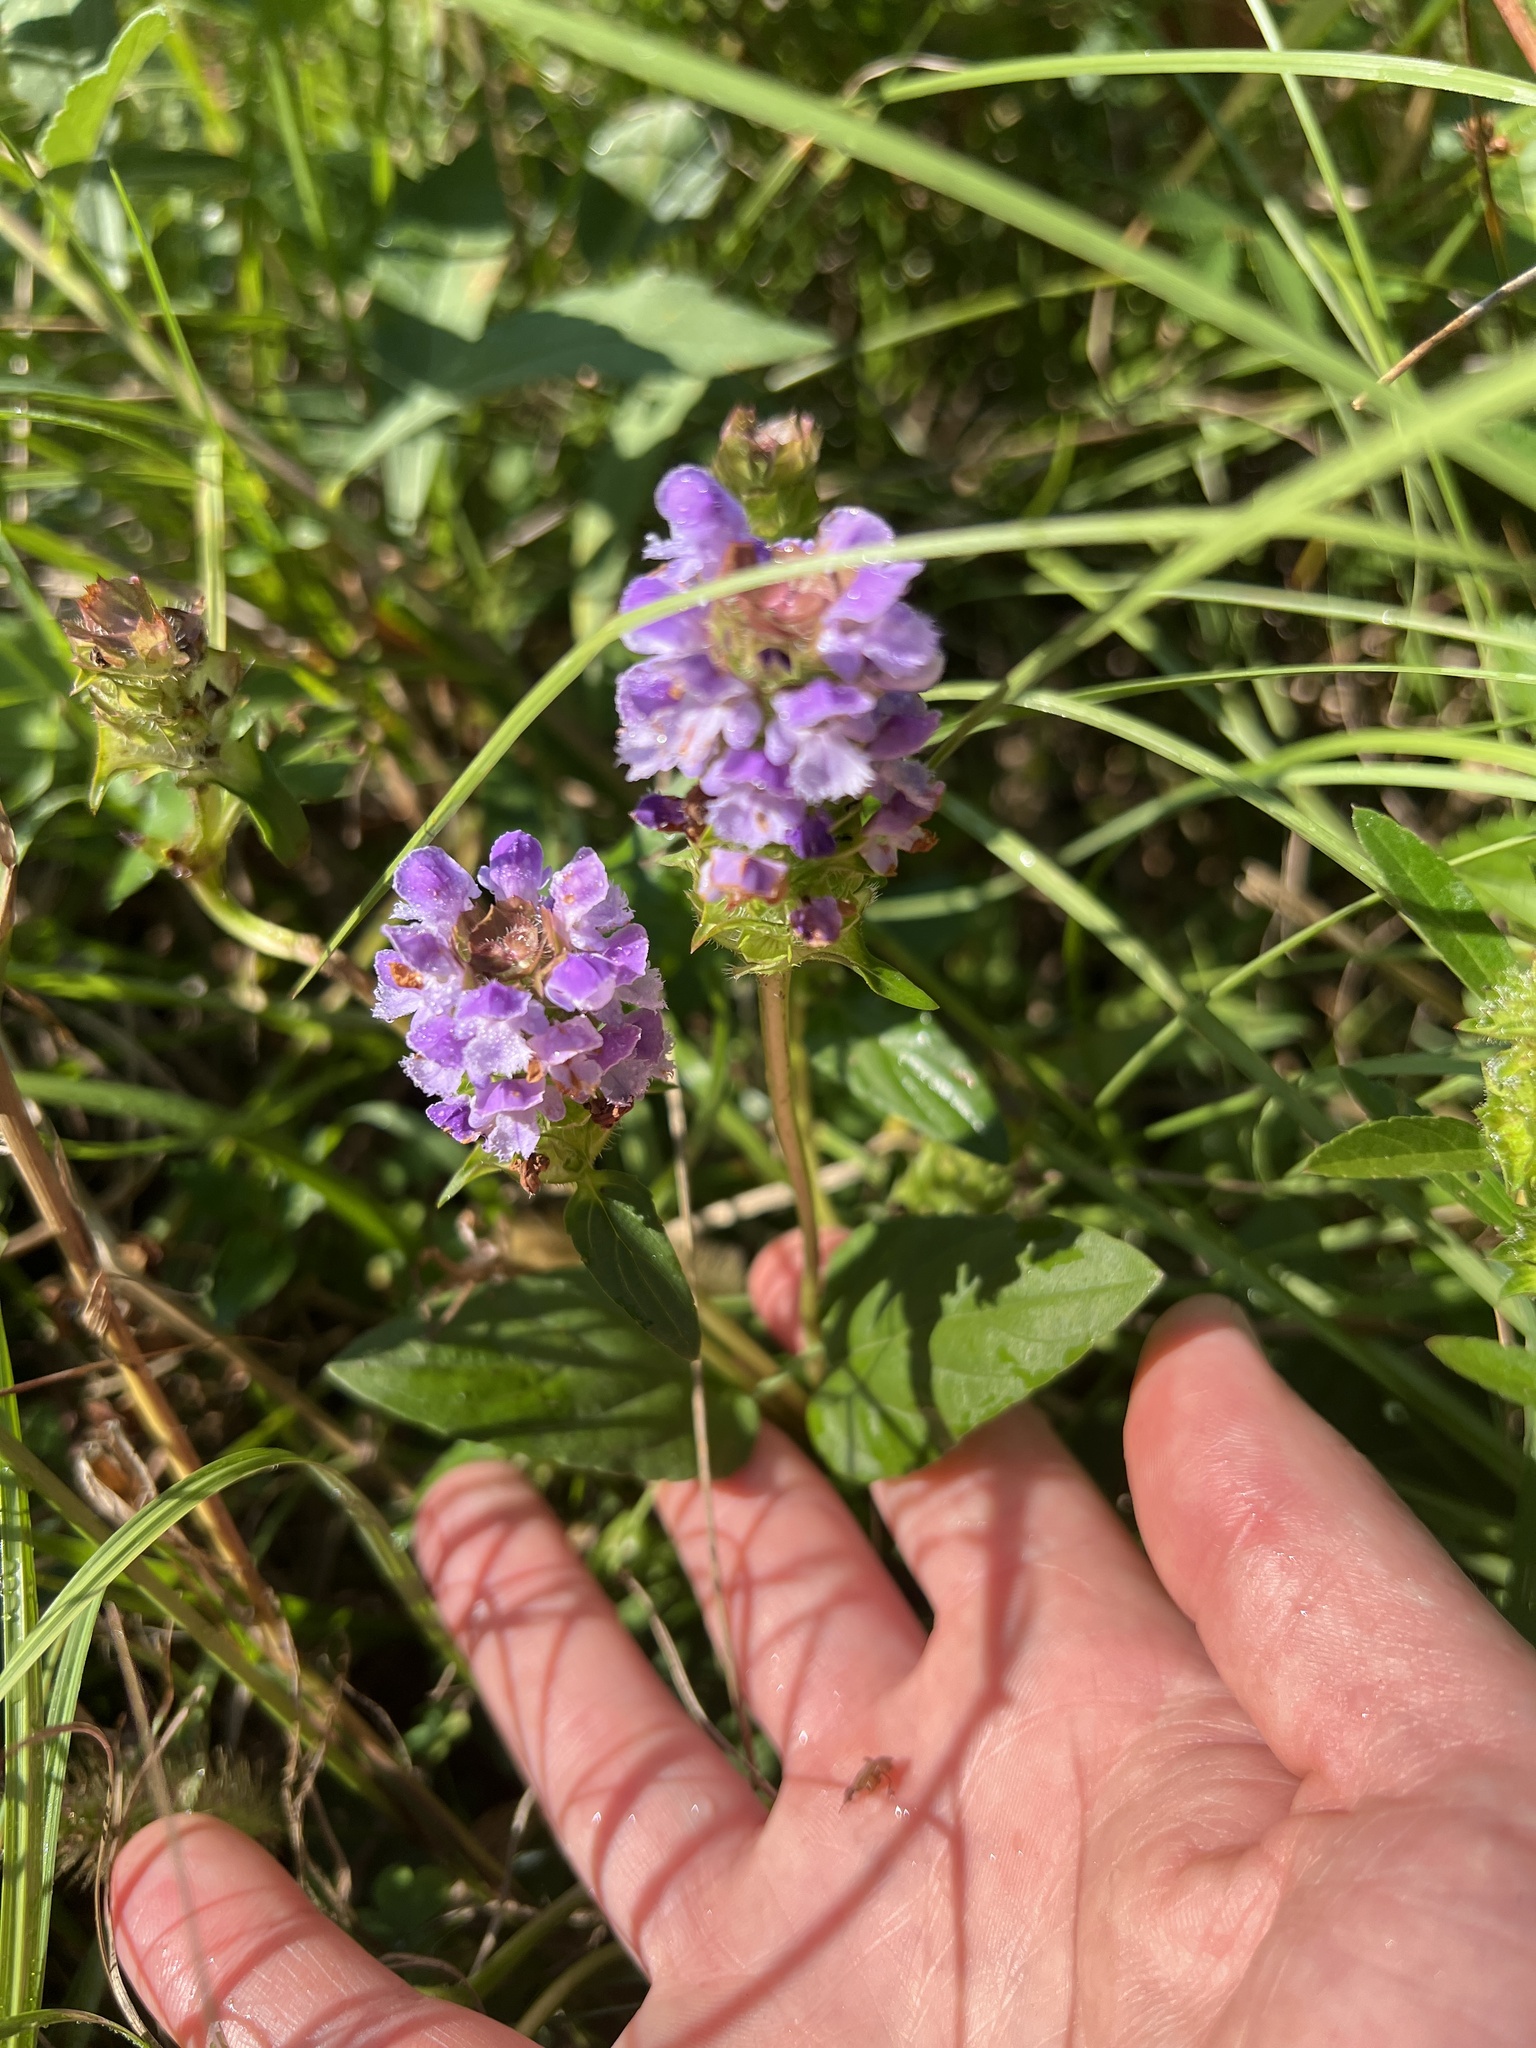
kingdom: Plantae
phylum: Tracheophyta
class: Magnoliopsida
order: Lamiales
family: Lamiaceae
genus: Prunella
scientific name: Prunella vulgaris
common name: Heal-all
